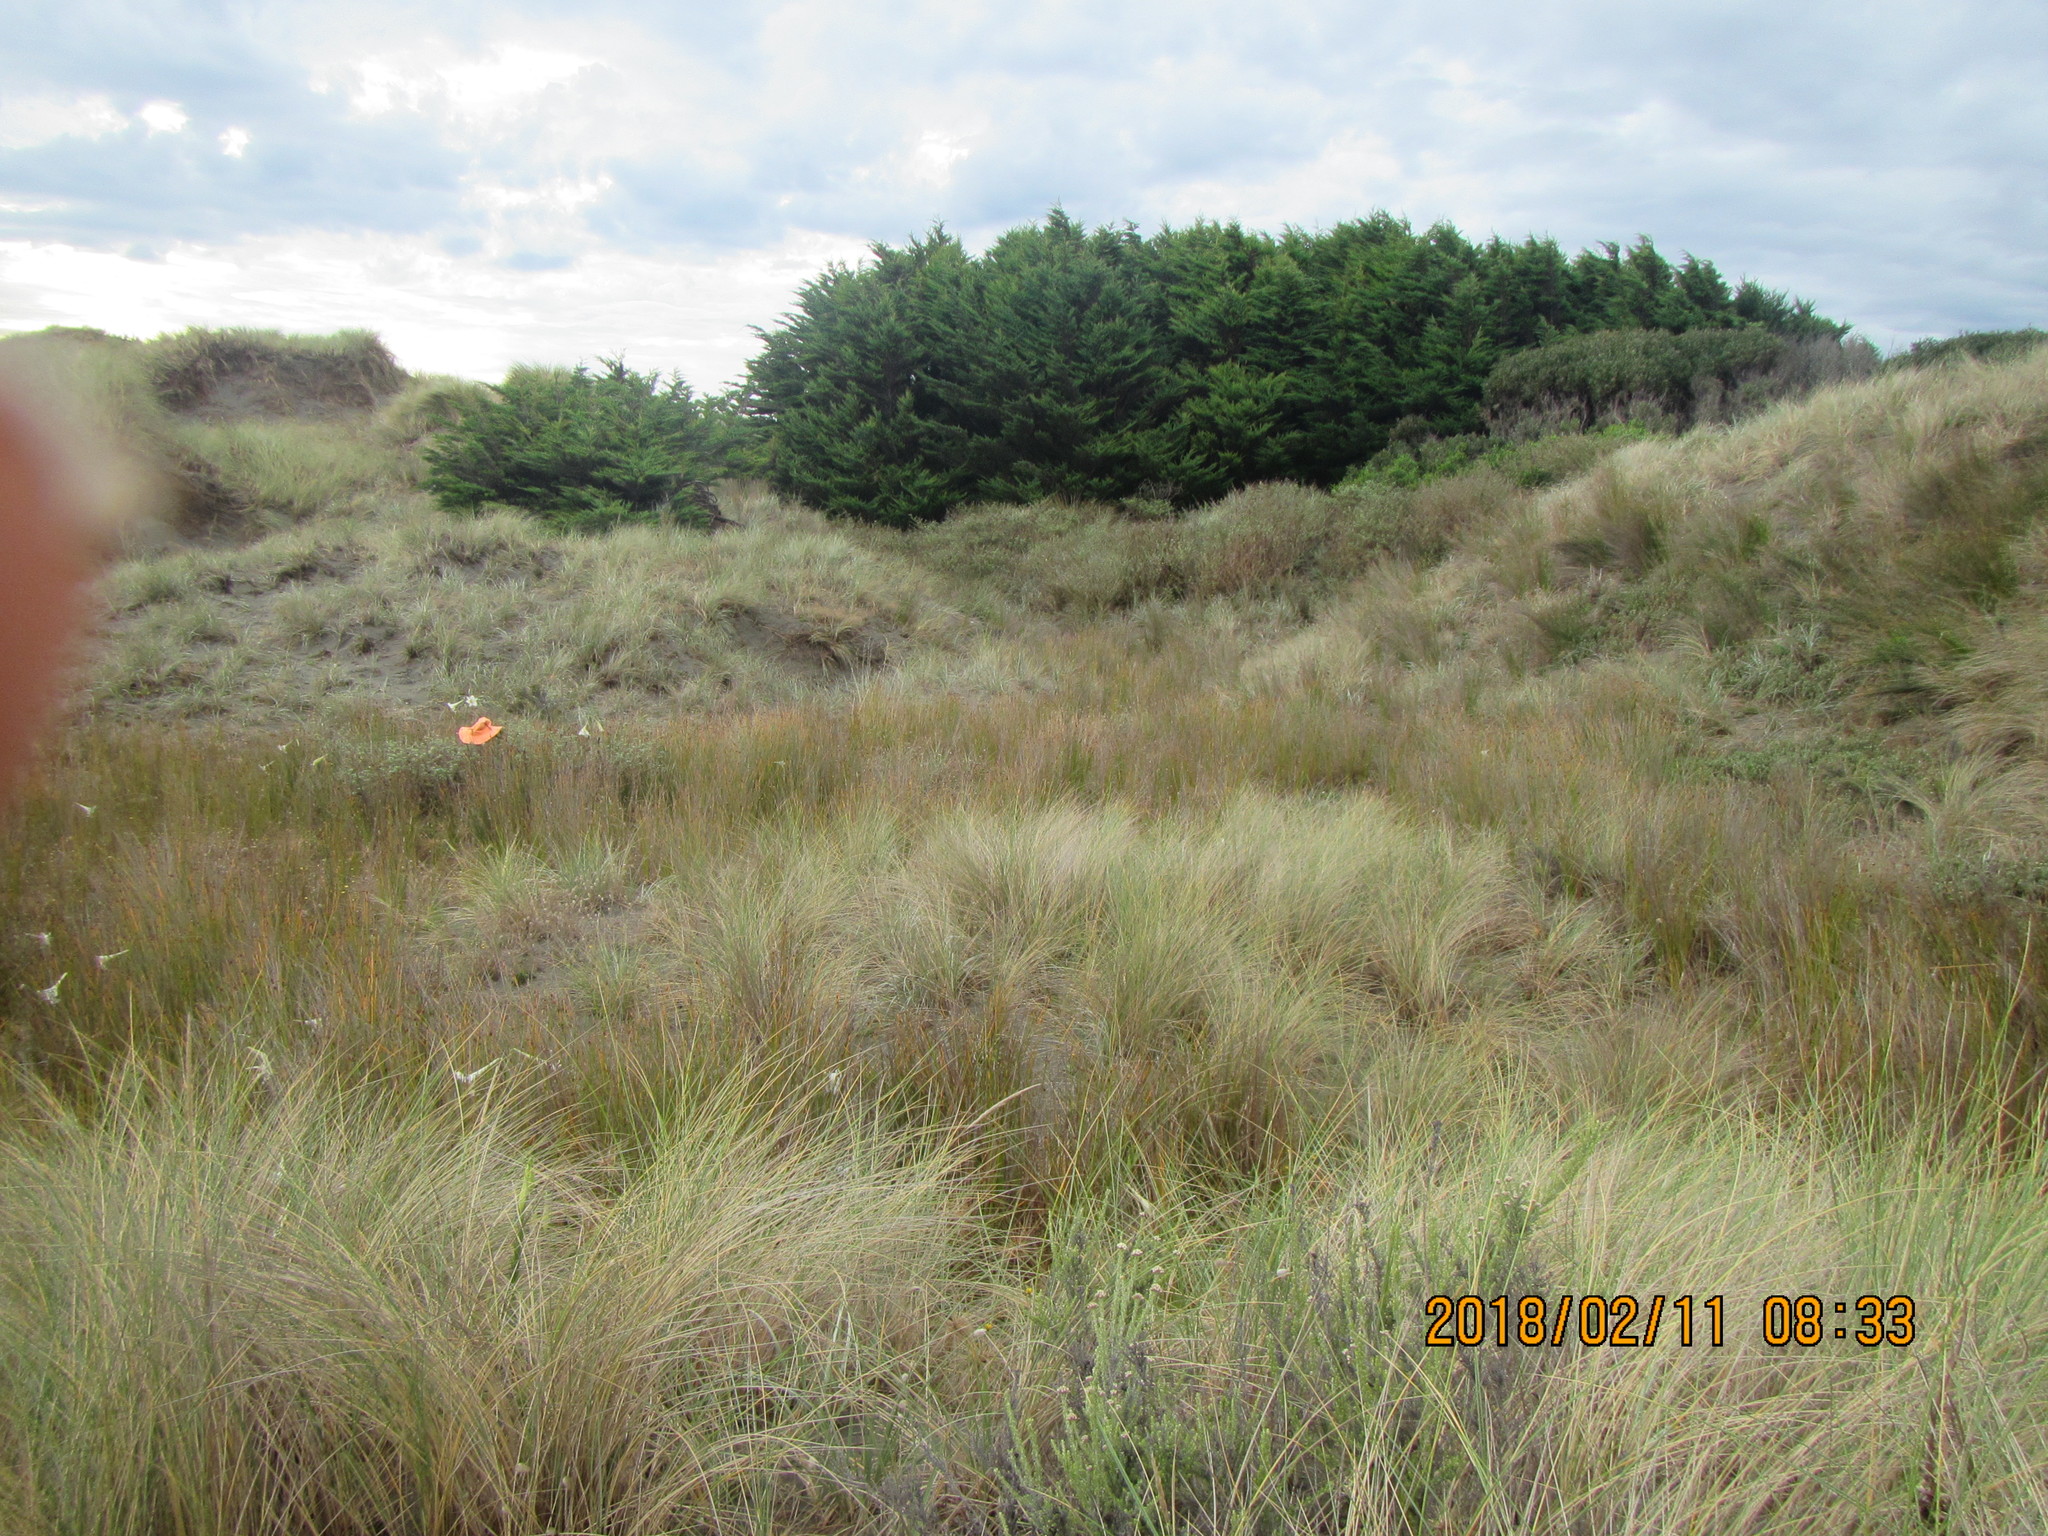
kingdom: Plantae
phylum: Tracheophyta
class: Magnoliopsida
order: Fabales
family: Fabaceae
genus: Lupinus
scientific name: Lupinus arboreus
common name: Yellow bush lupine
